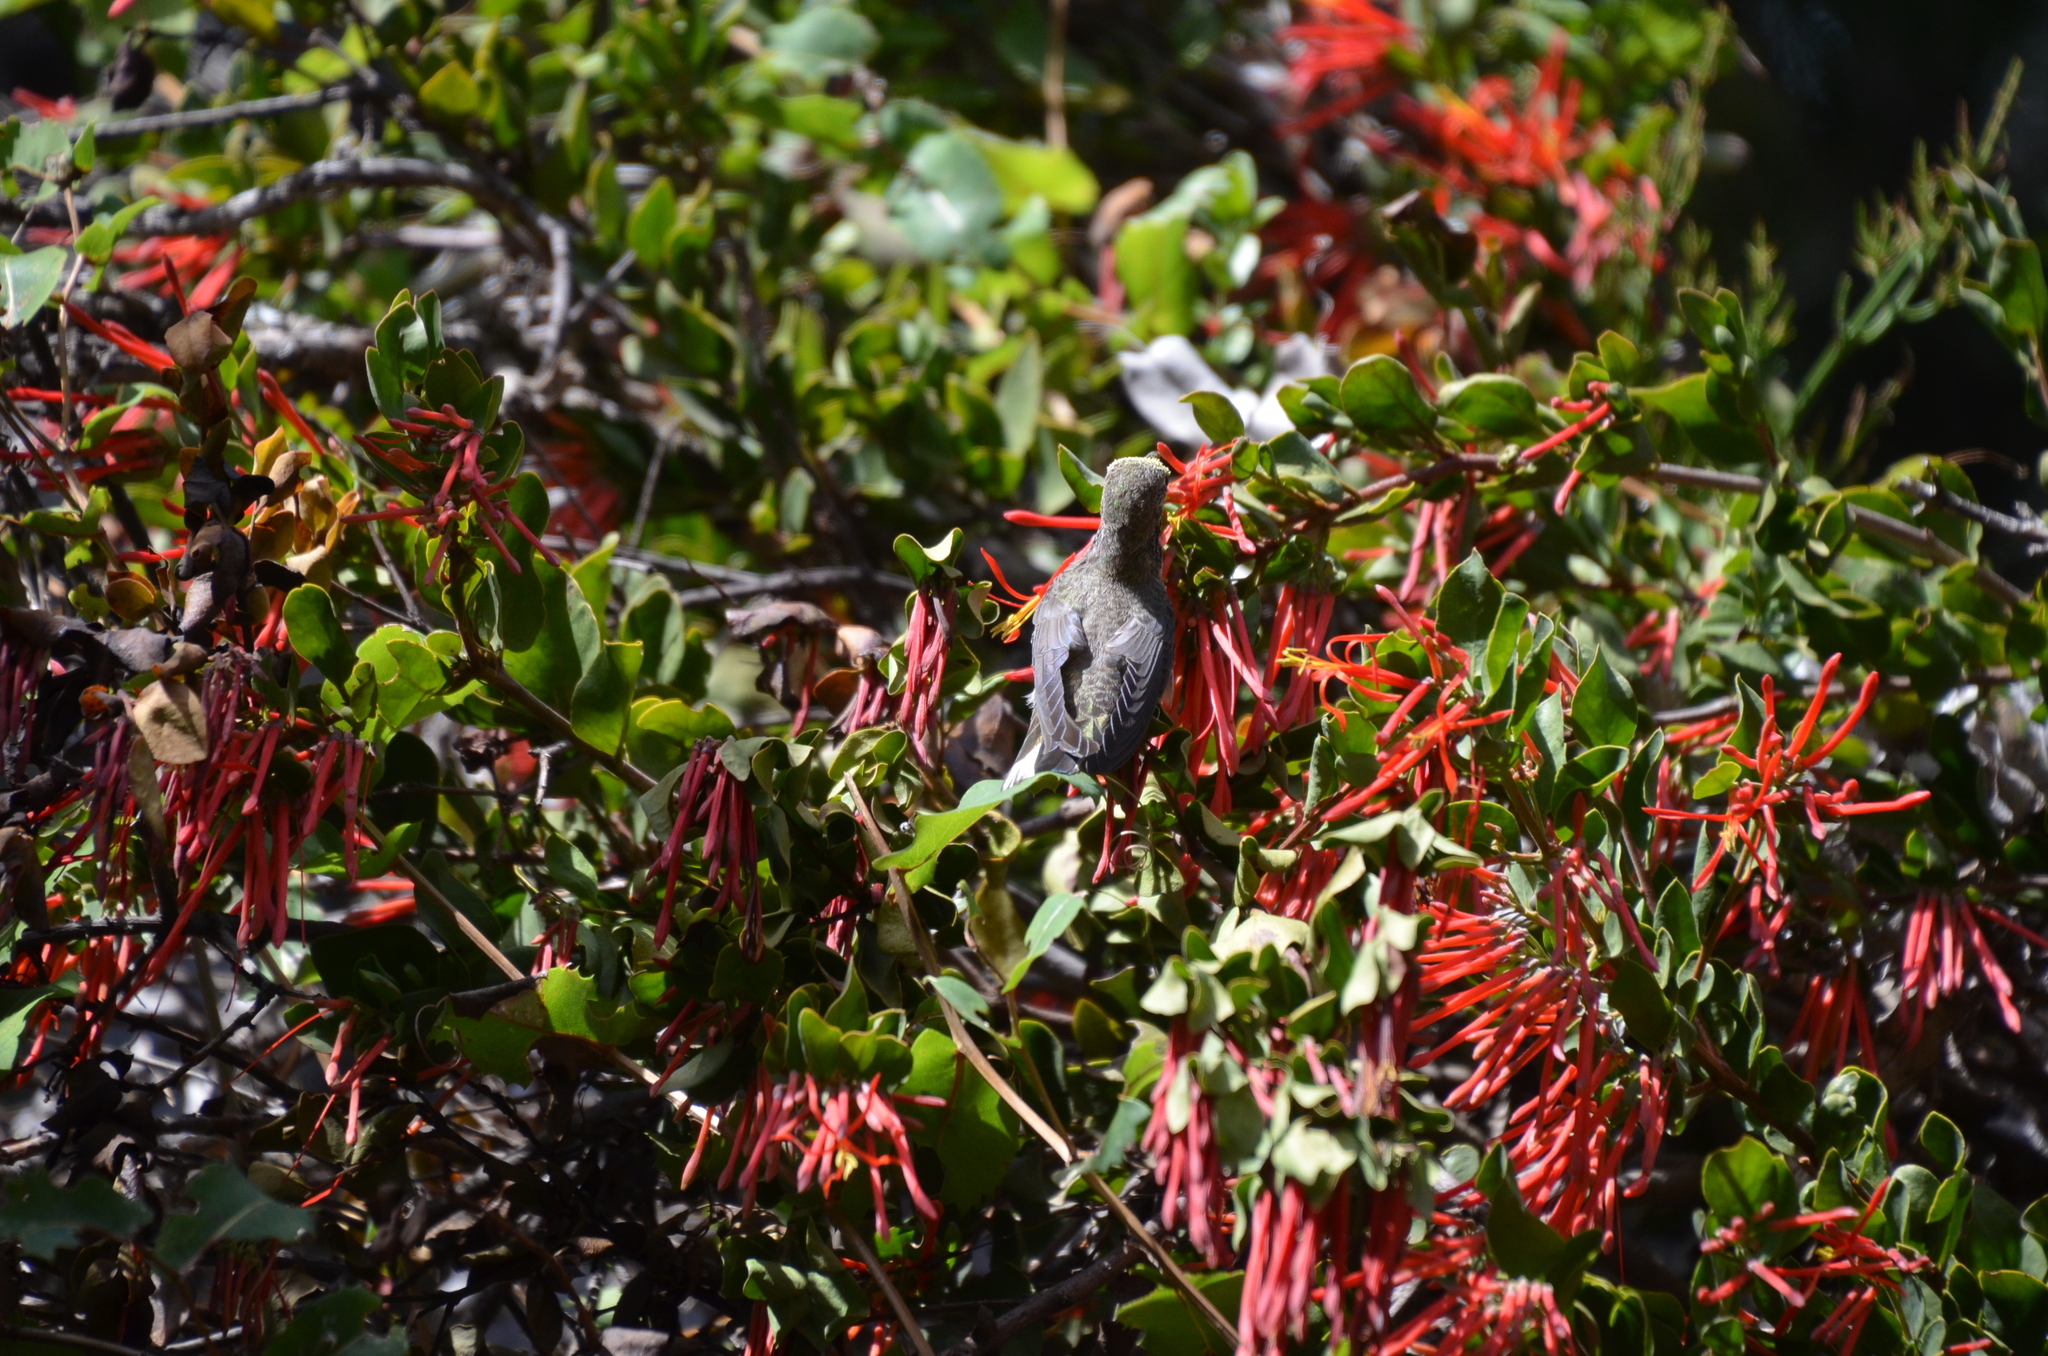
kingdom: Animalia
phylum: Chordata
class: Aves
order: Apodiformes
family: Trochilidae
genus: Sephanoides
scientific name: Sephanoides sephaniodes
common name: Green-backed firecrown
